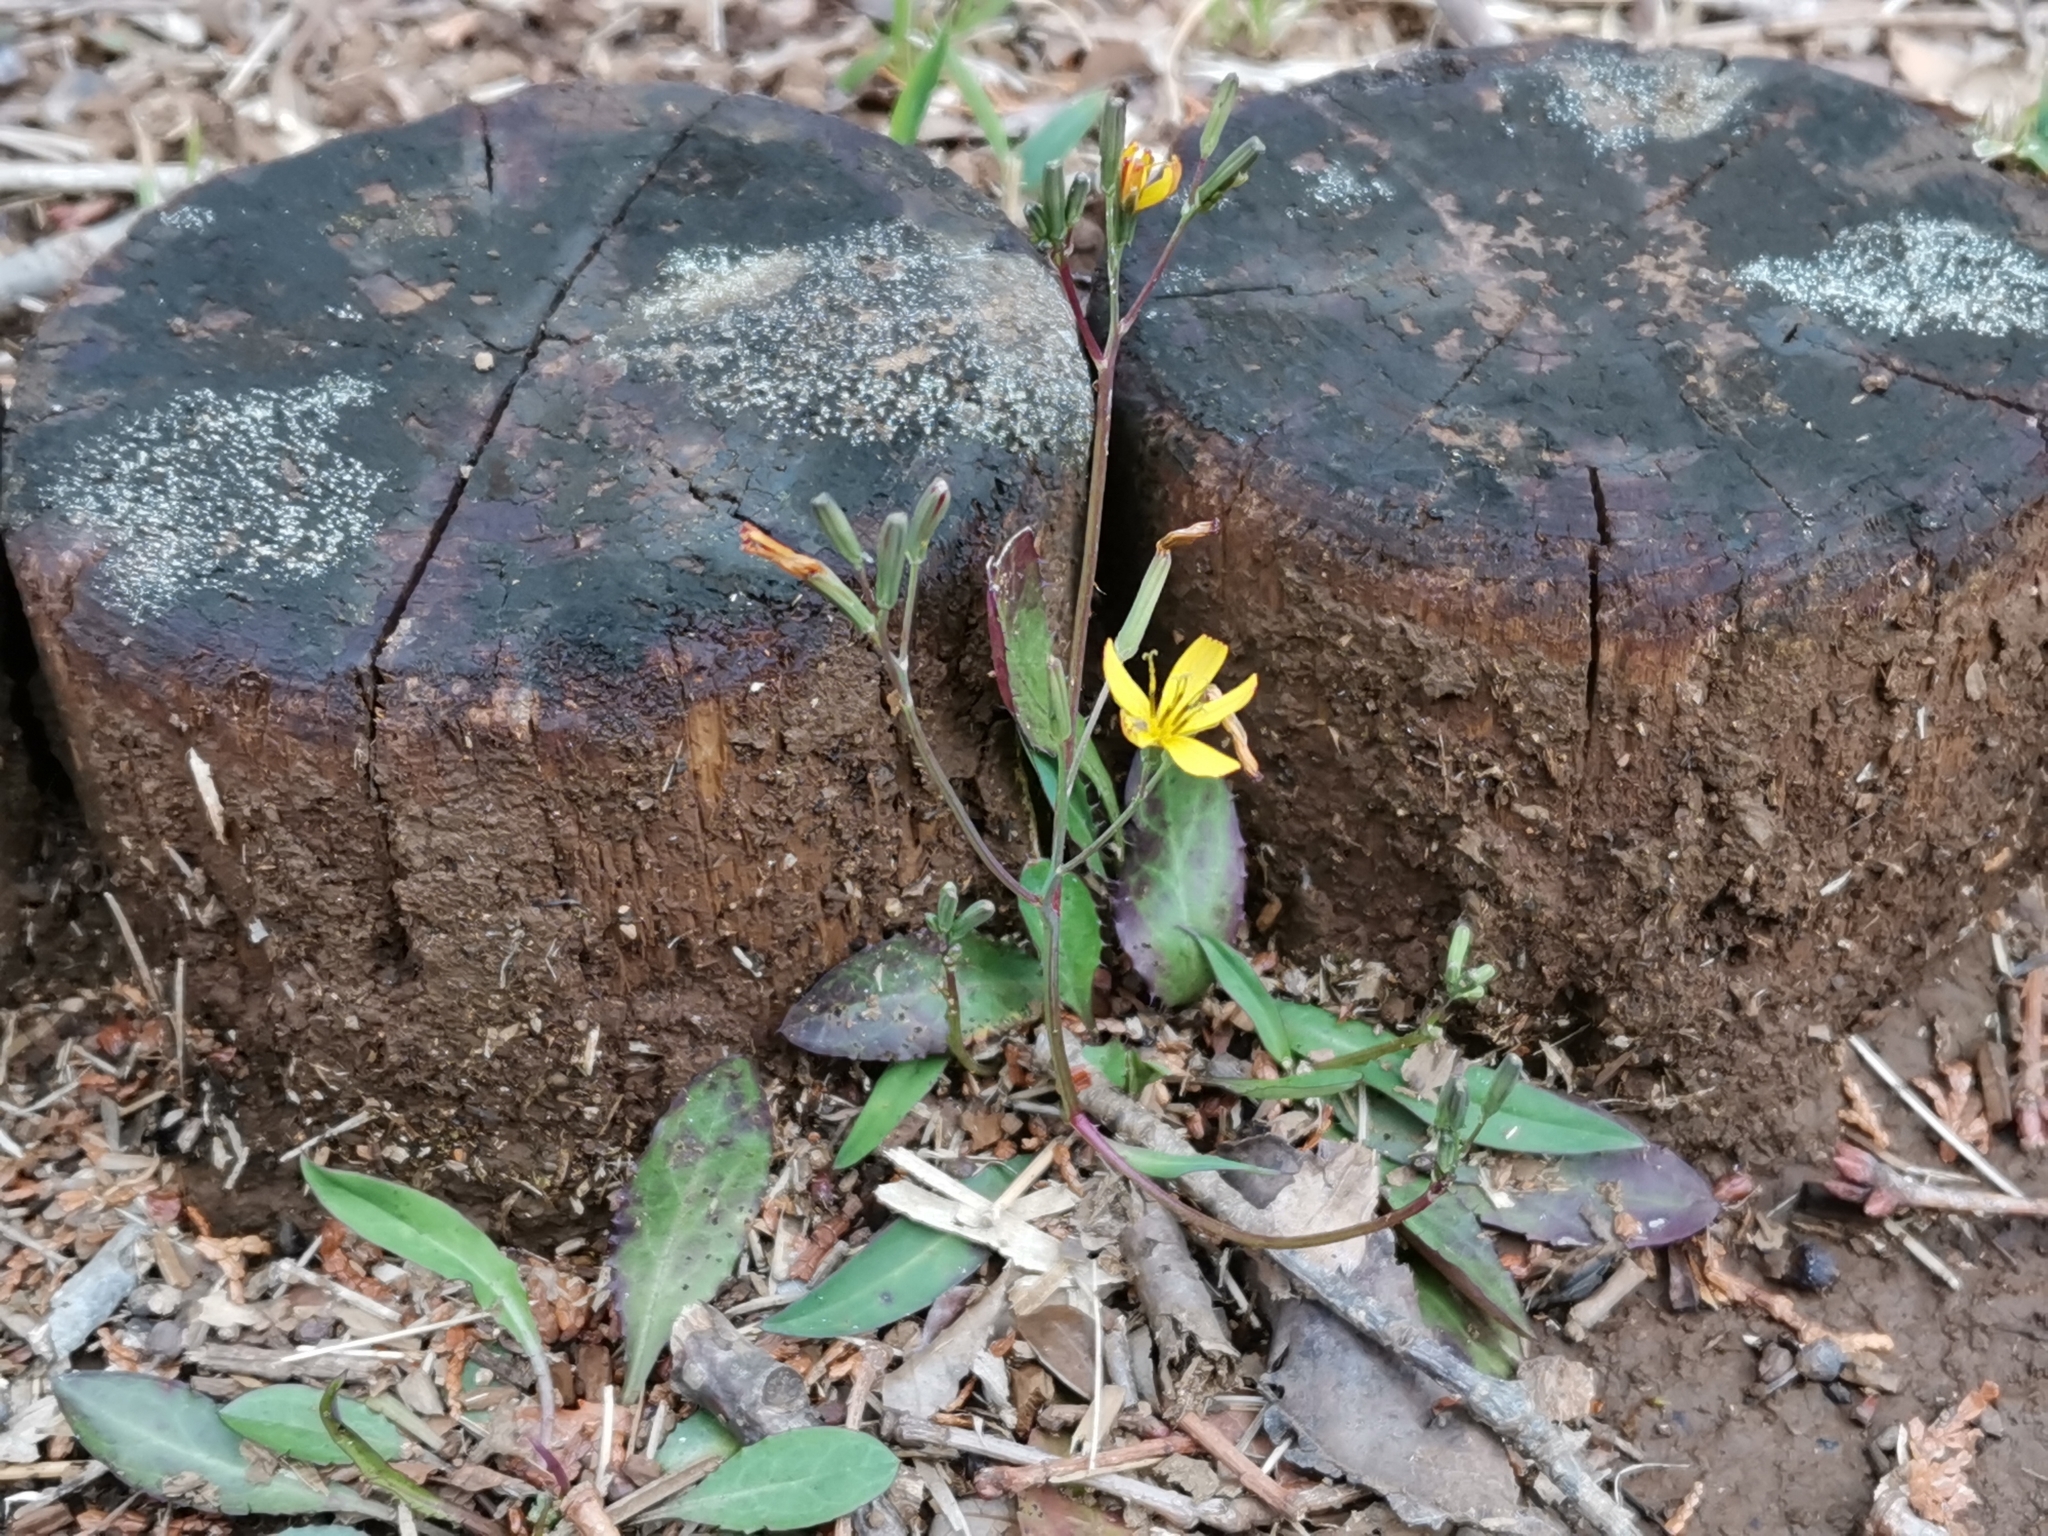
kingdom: Plantae
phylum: Tracheophyta
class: Magnoliopsida
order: Asterales
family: Asteraceae
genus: Ixeridium
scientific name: Ixeridium dentatum
